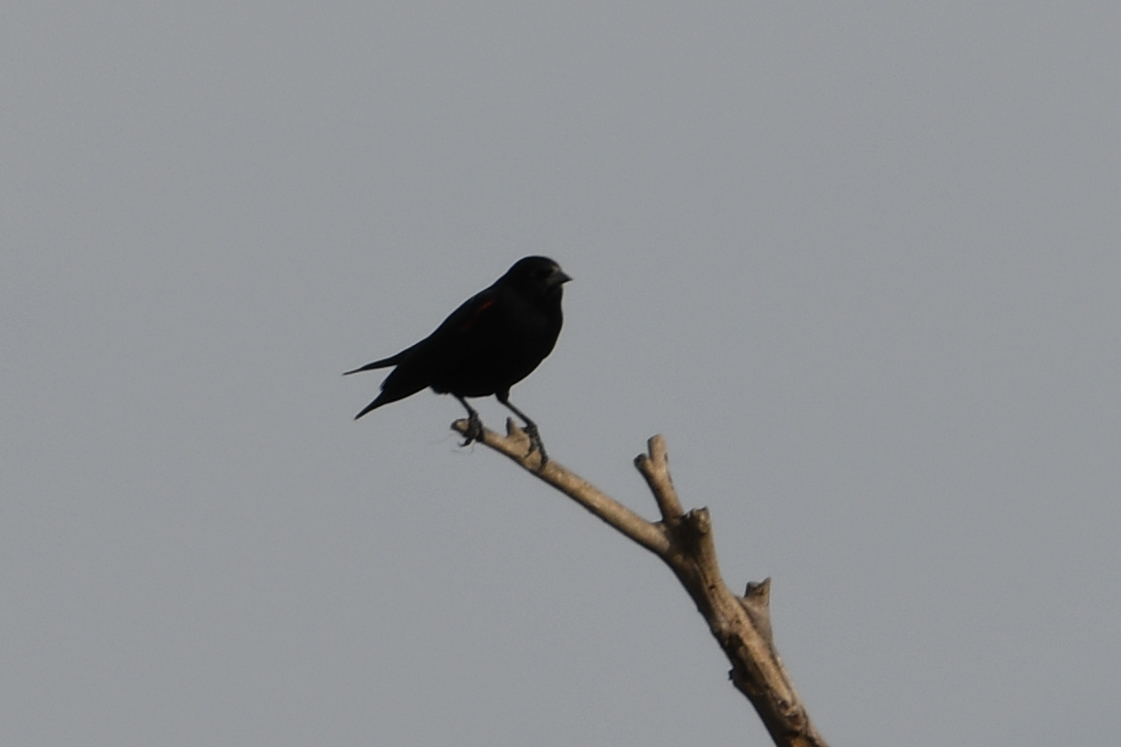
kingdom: Animalia
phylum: Chordata
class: Aves
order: Passeriformes
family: Icteridae
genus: Agelaius
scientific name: Agelaius phoeniceus
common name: Red-winged blackbird
